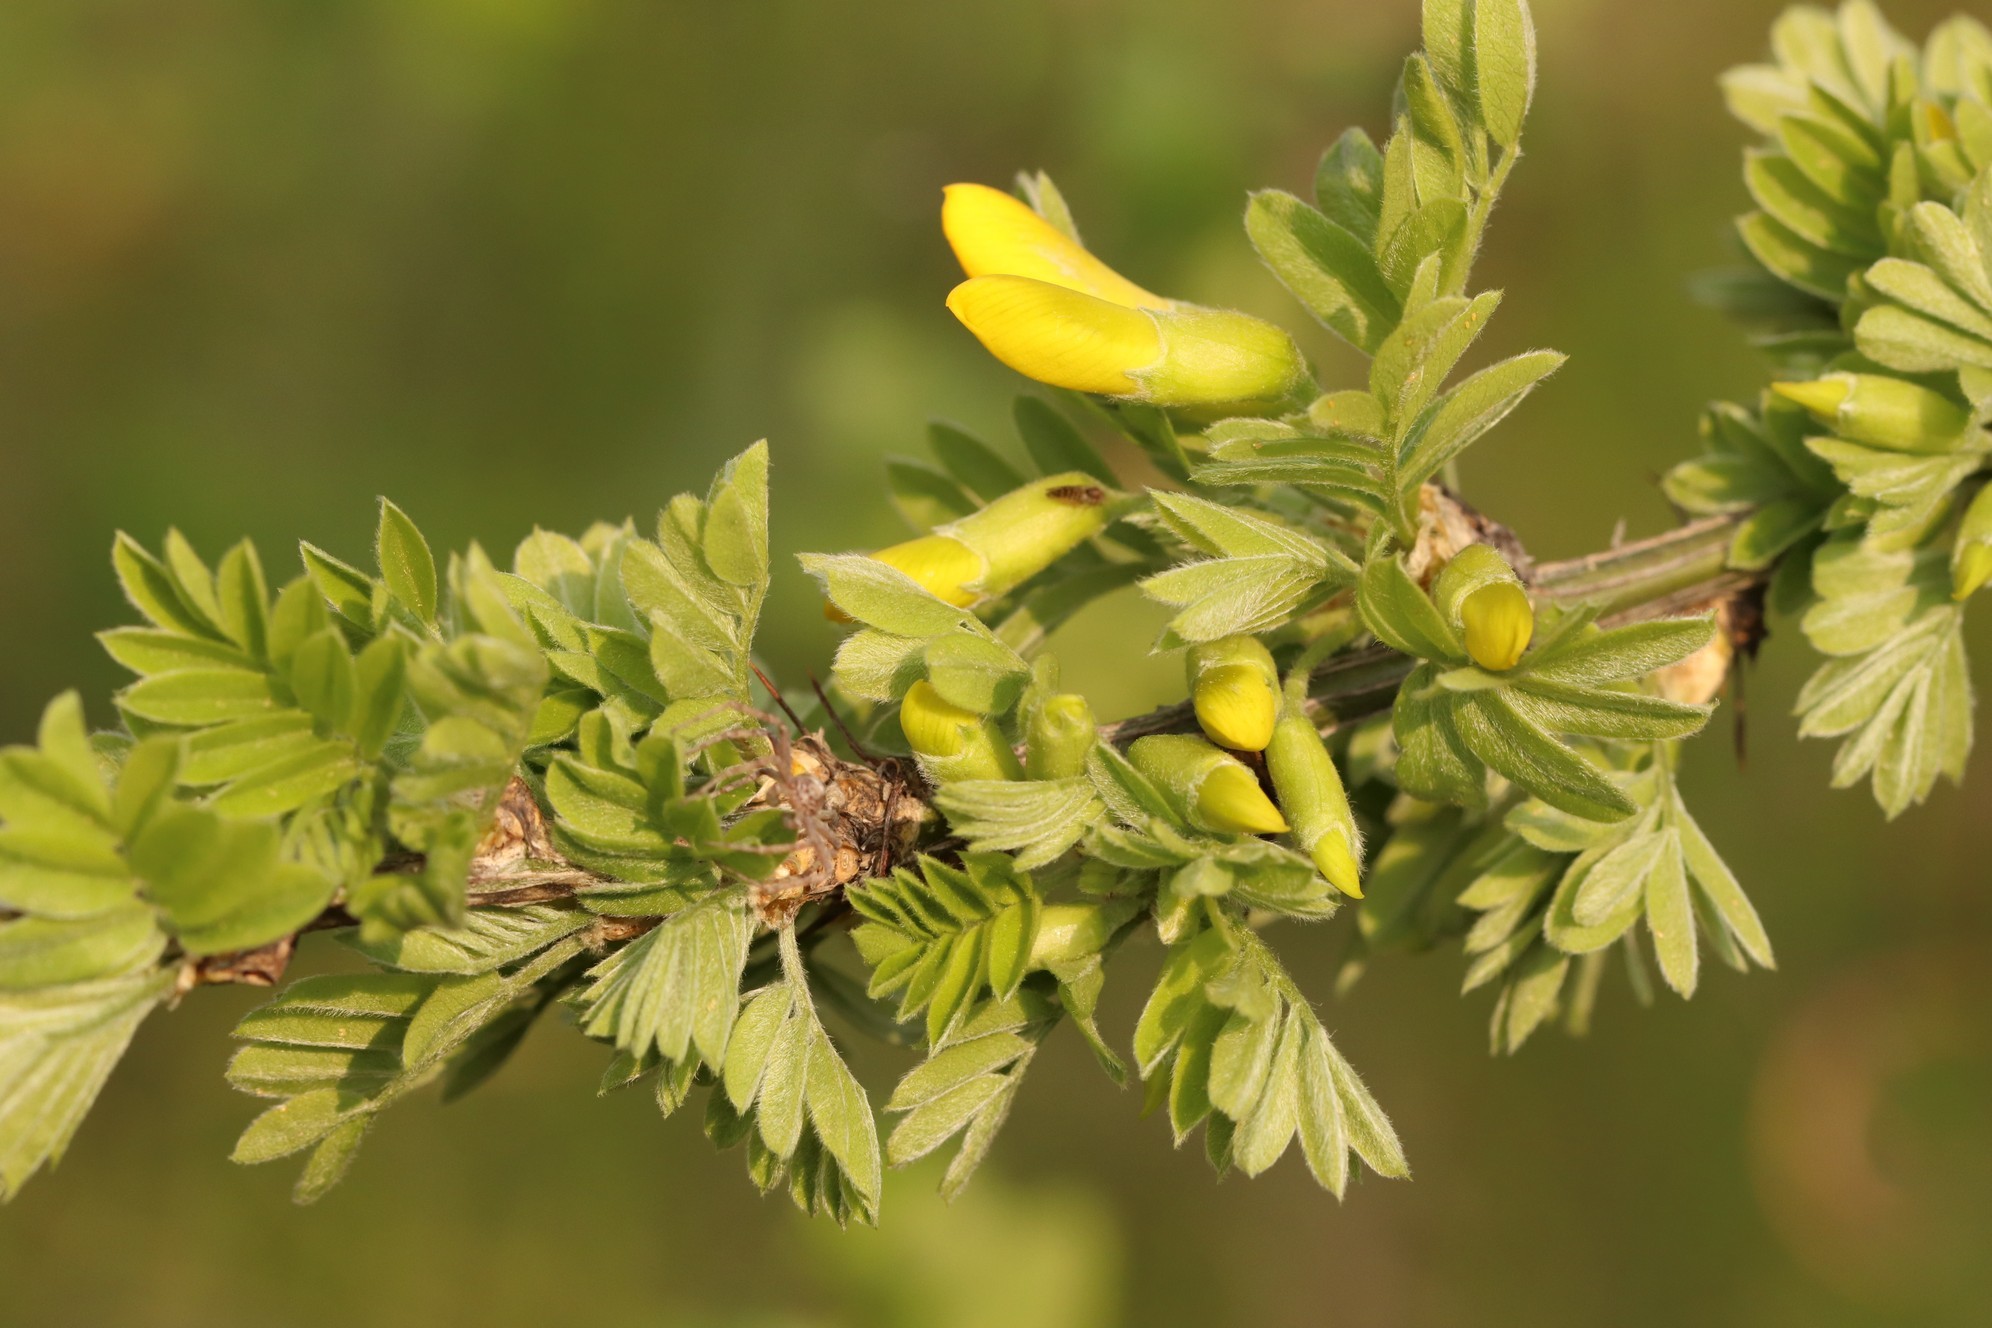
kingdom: Plantae
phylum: Tracheophyta
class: Magnoliopsida
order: Fabales
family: Fabaceae
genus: Caragana
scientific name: Caragana arborescens
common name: Siberian peashrub
